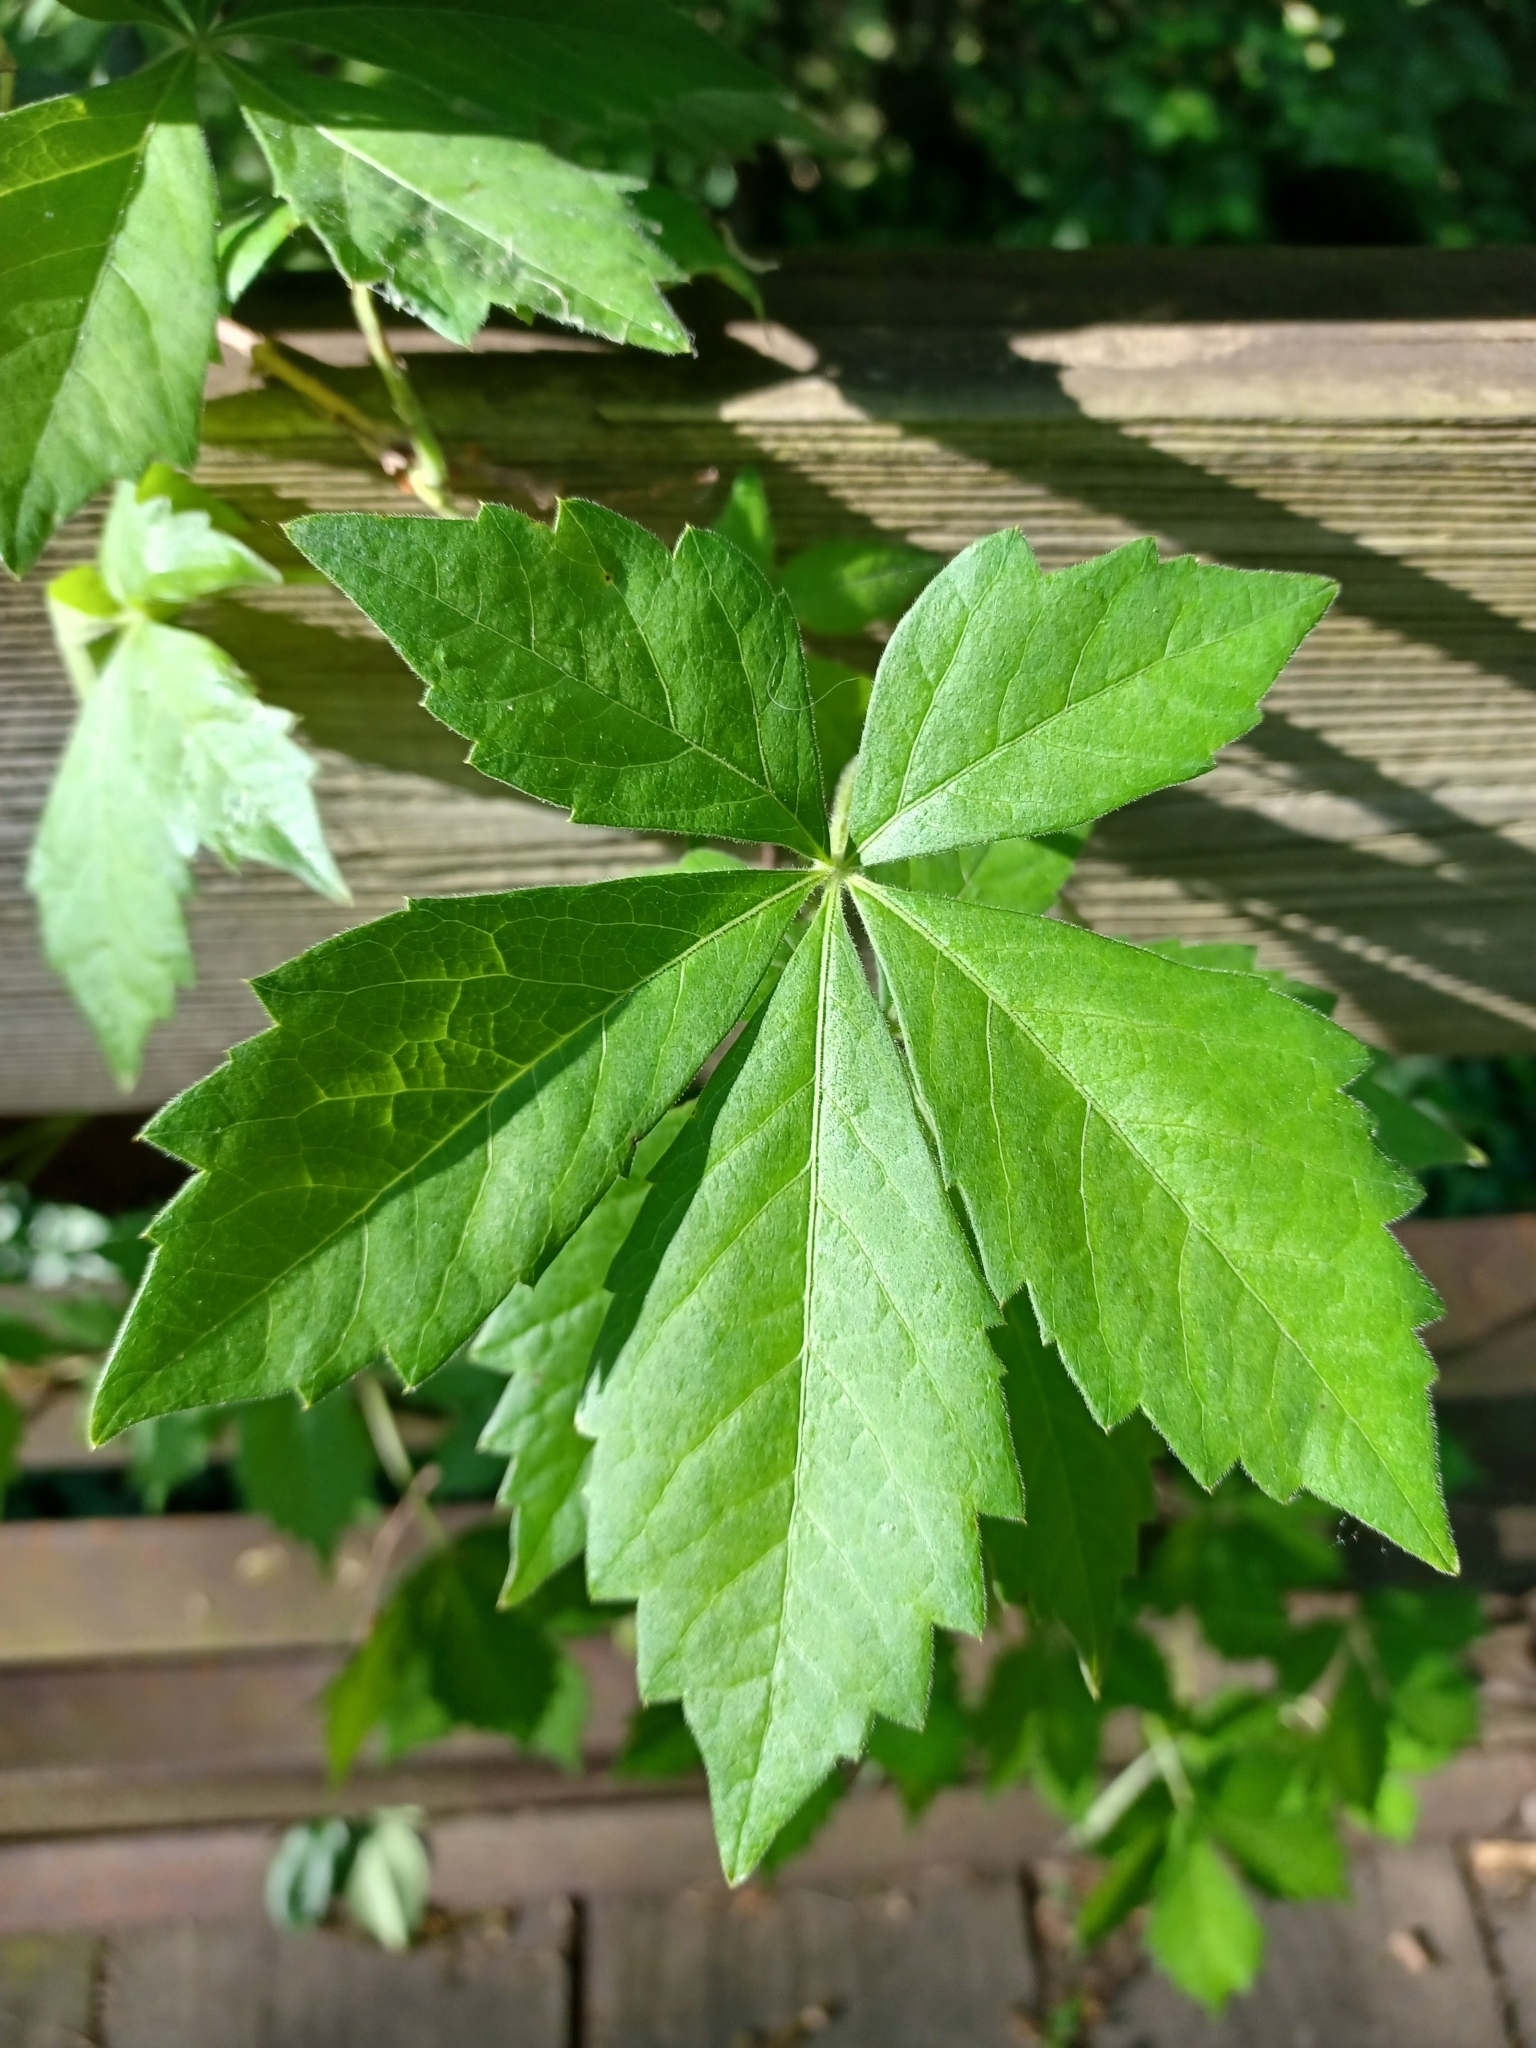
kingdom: Plantae
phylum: Tracheophyta
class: Magnoliopsida
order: Vitales
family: Vitaceae
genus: Parthenocissus
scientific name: Parthenocissus quinquefolia
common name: Virginia-creeper
